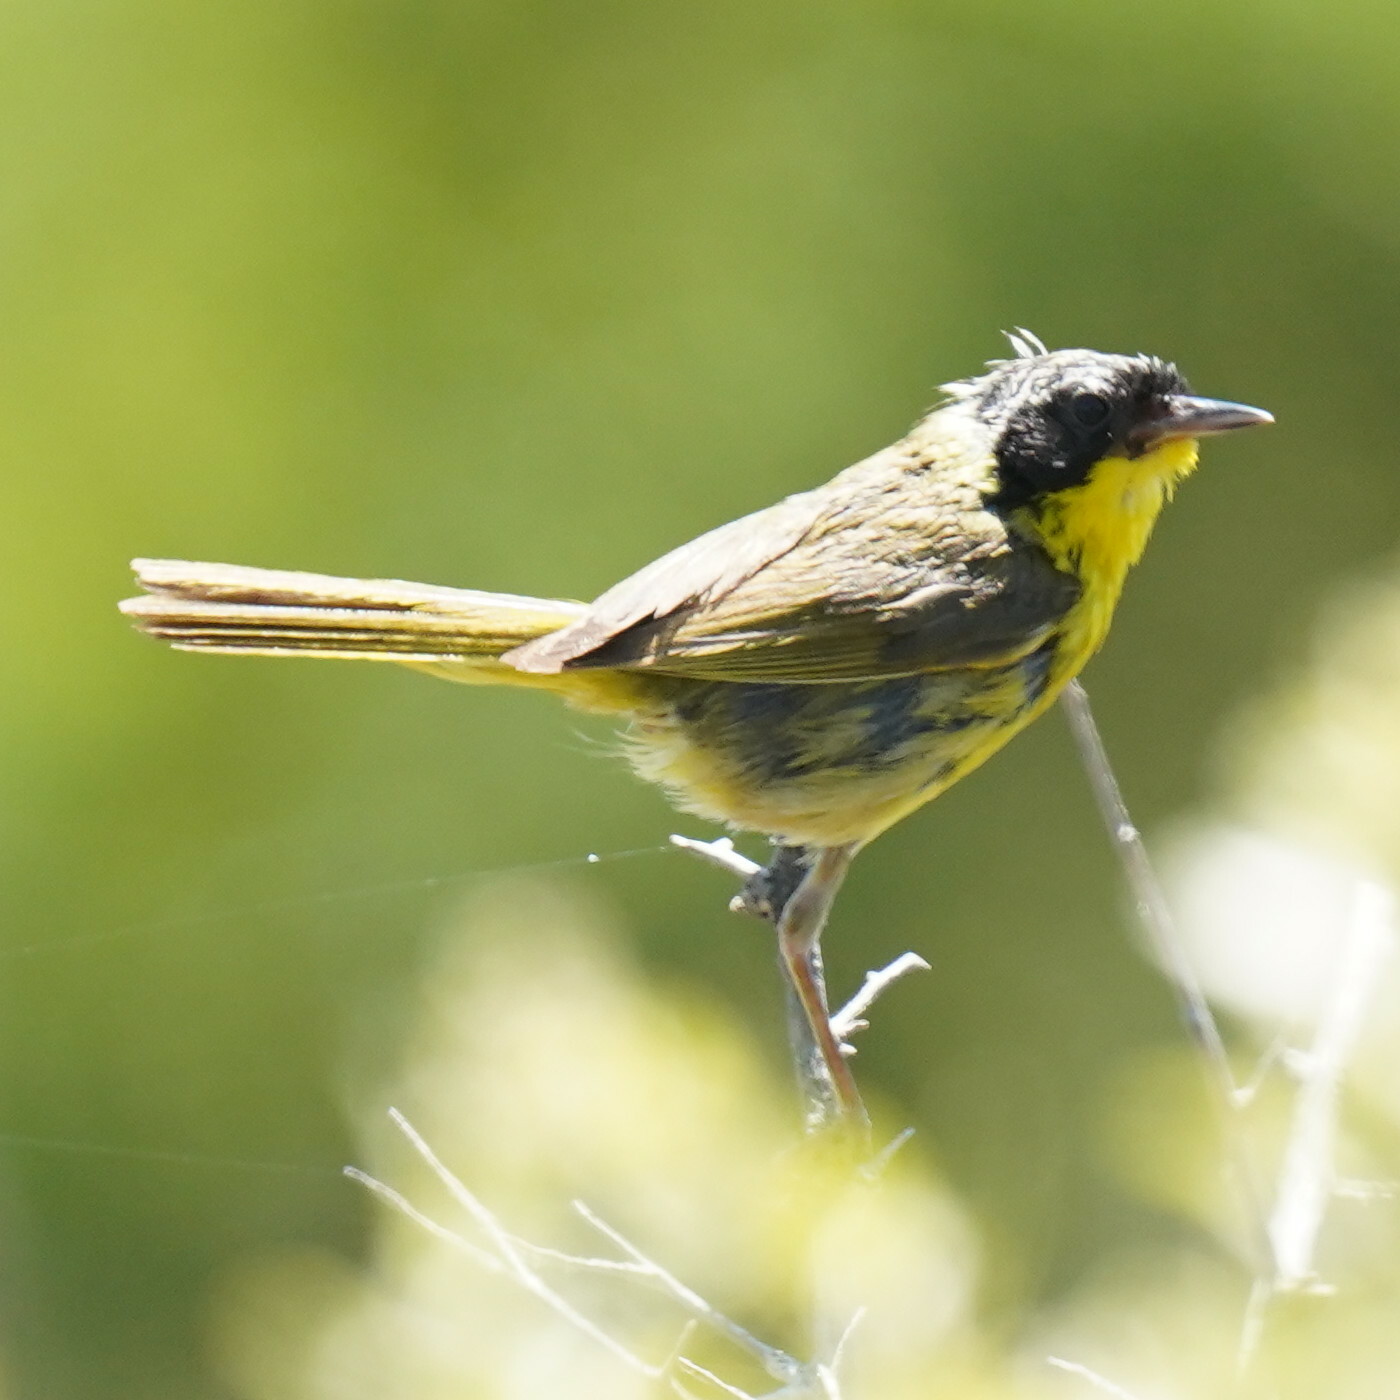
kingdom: Animalia
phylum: Chordata
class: Aves
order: Passeriformes
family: Parulidae
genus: Geothlypis
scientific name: Geothlypis trichas
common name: Common yellowthroat
